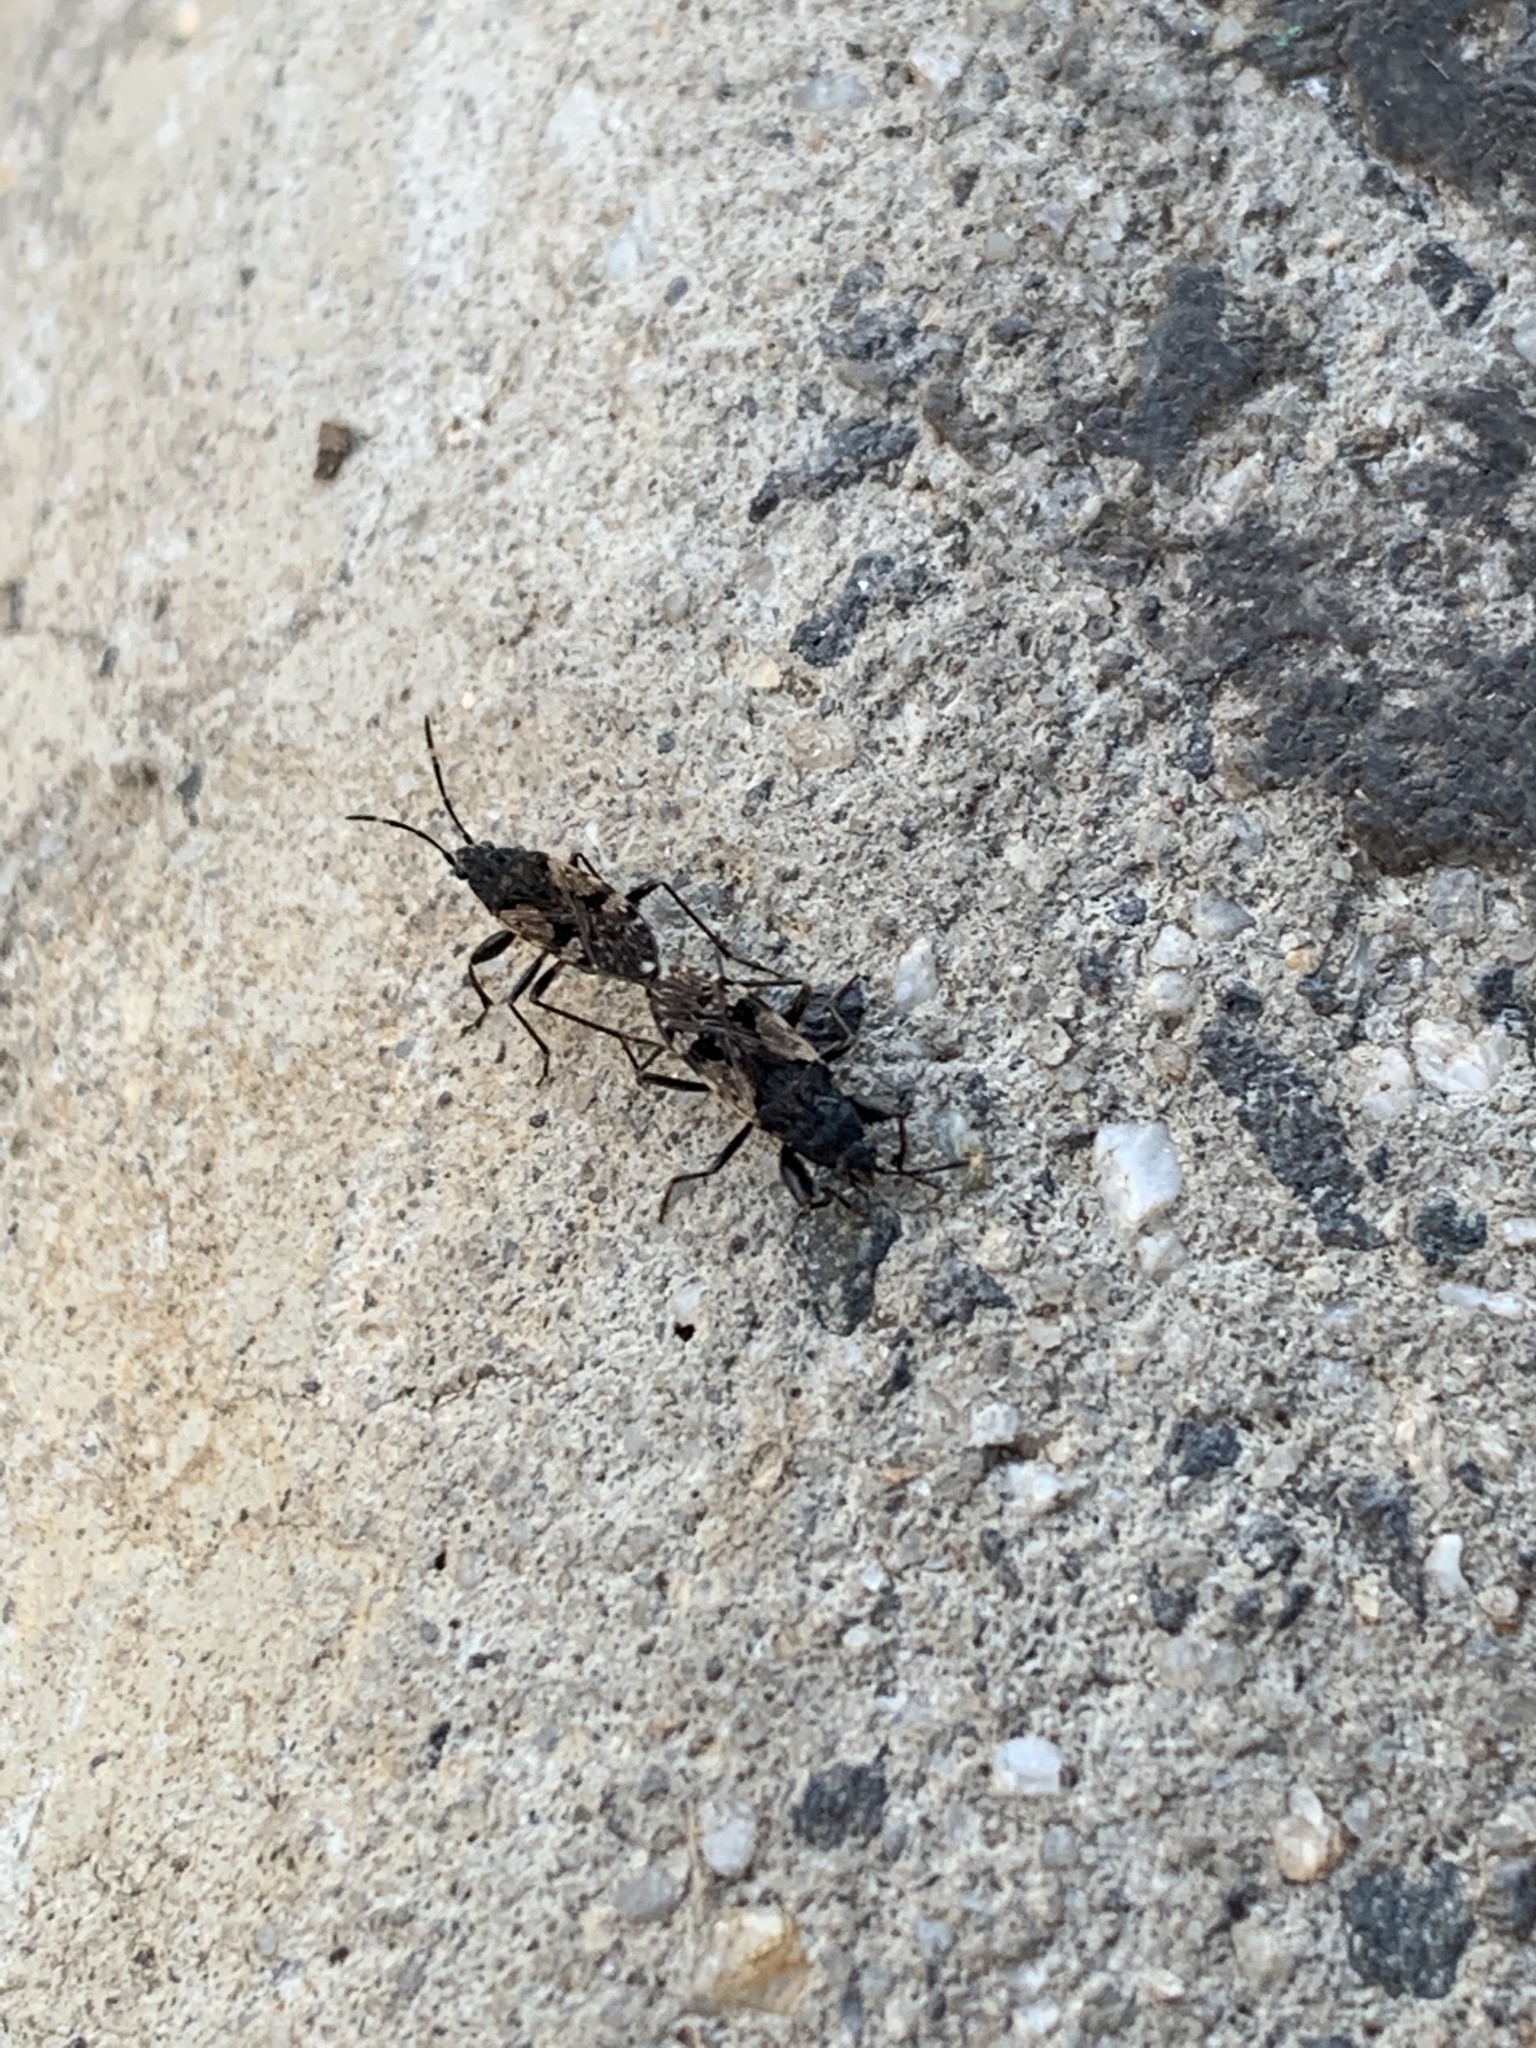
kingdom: Animalia
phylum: Arthropoda
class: Insecta
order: Hemiptera
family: Rhyparochromidae
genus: Euander
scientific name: Euander lacertosus
